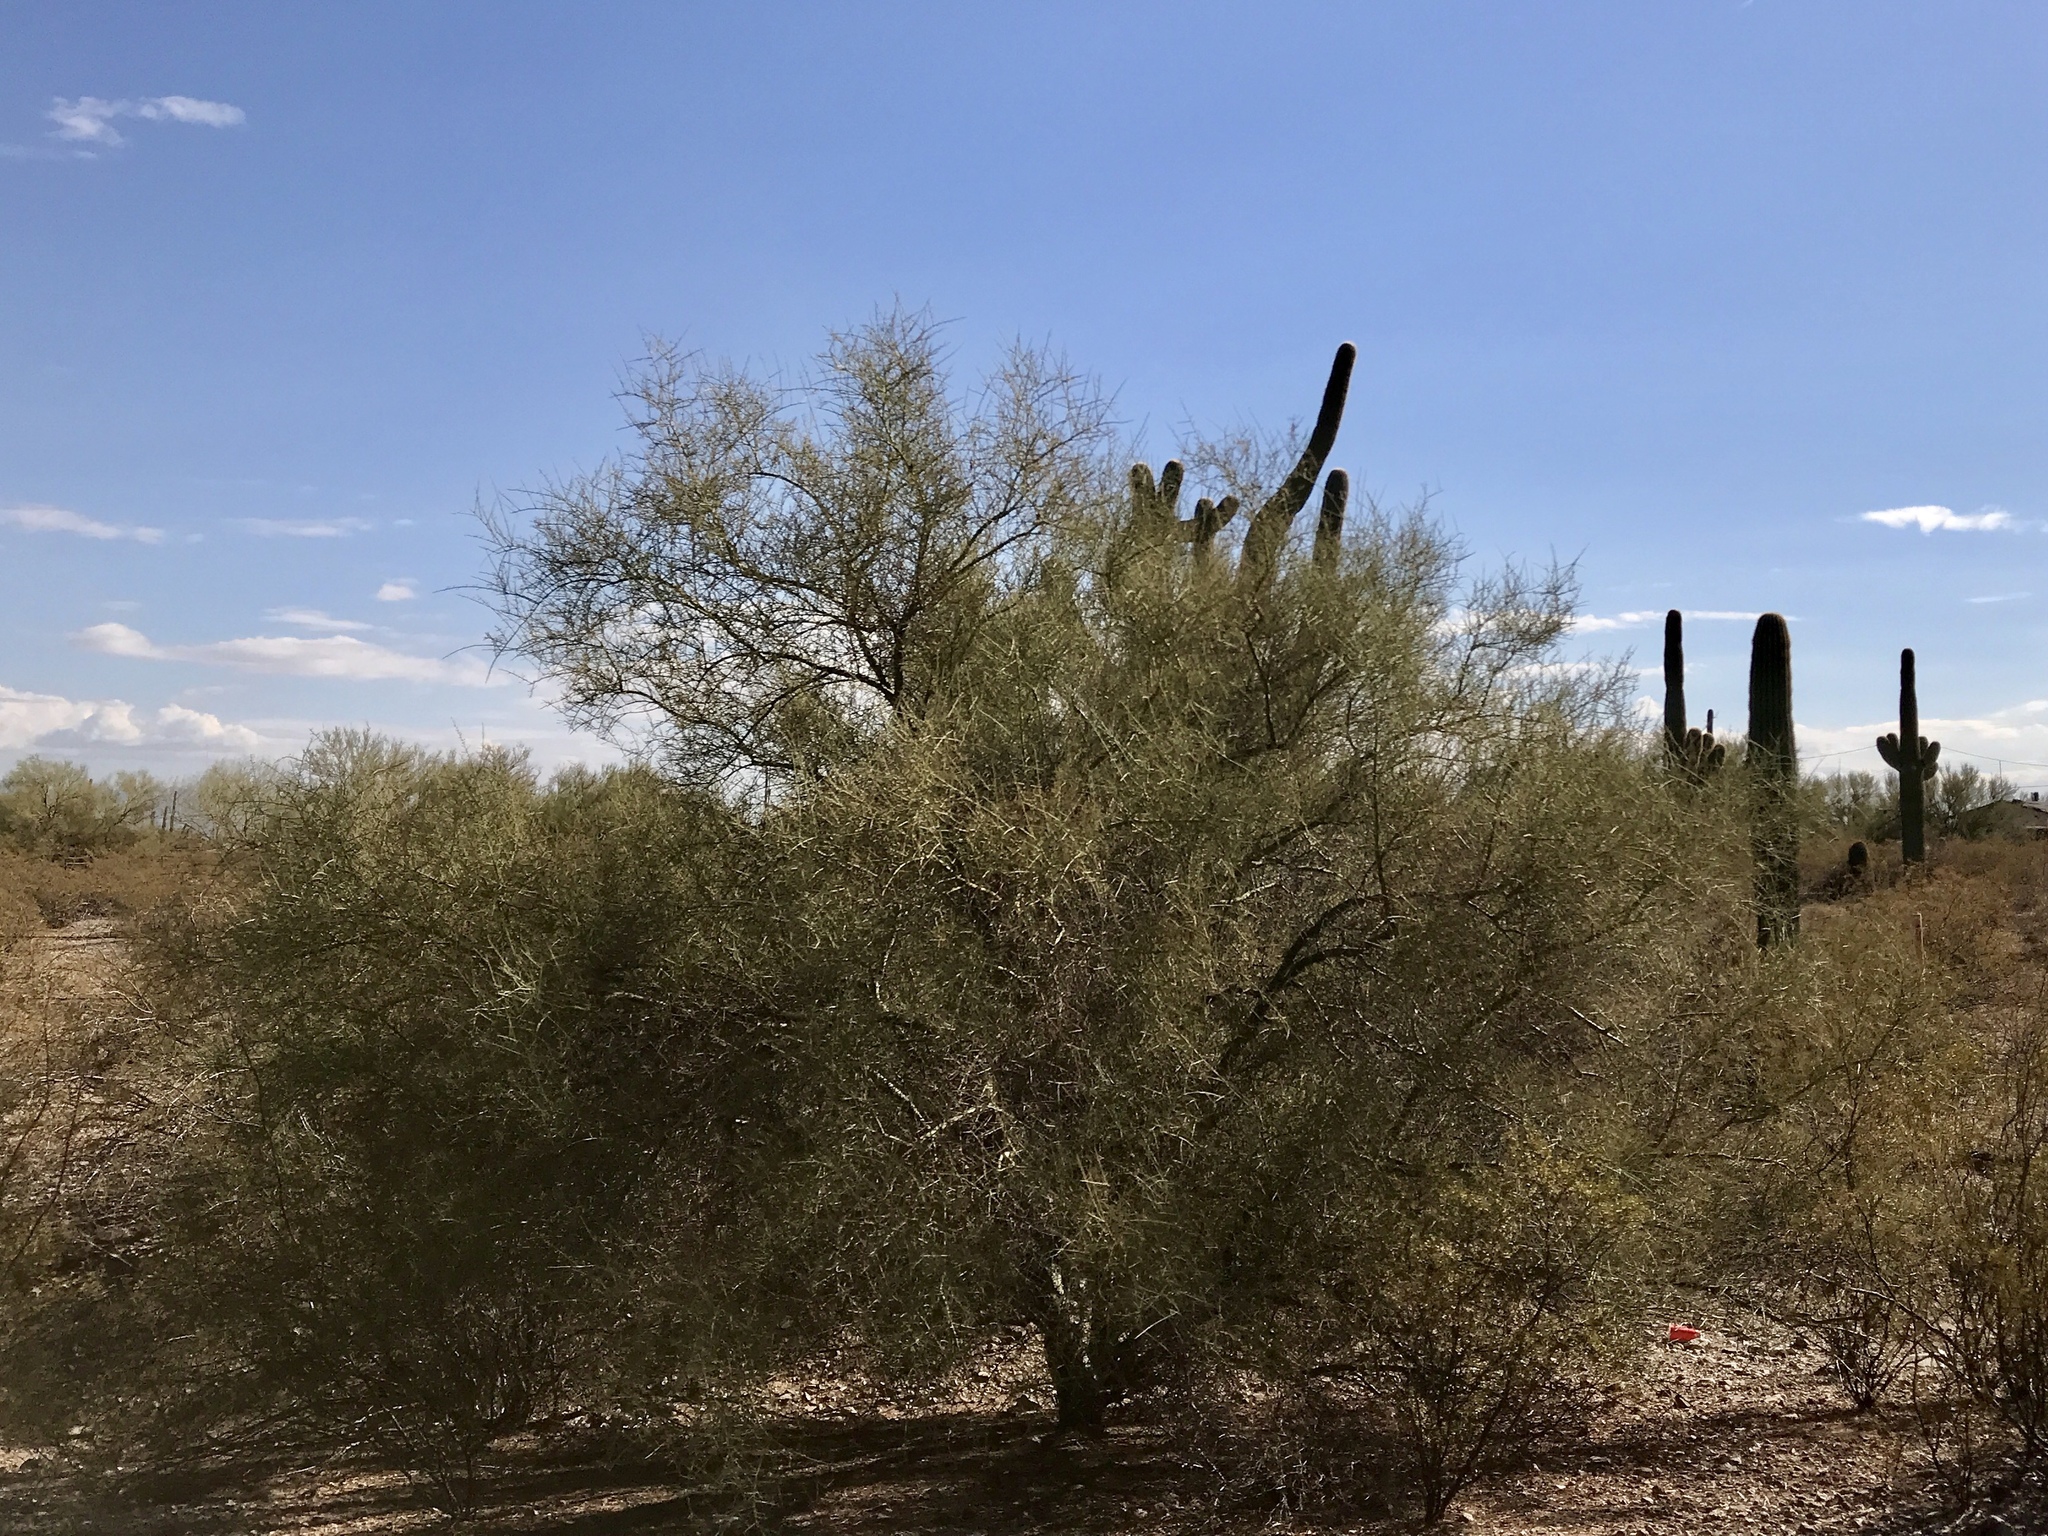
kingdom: Plantae
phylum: Tracheophyta
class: Magnoliopsida
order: Fabales
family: Fabaceae
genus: Parkinsonia
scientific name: Parkinsonia microphylla
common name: Yellow paloverde
